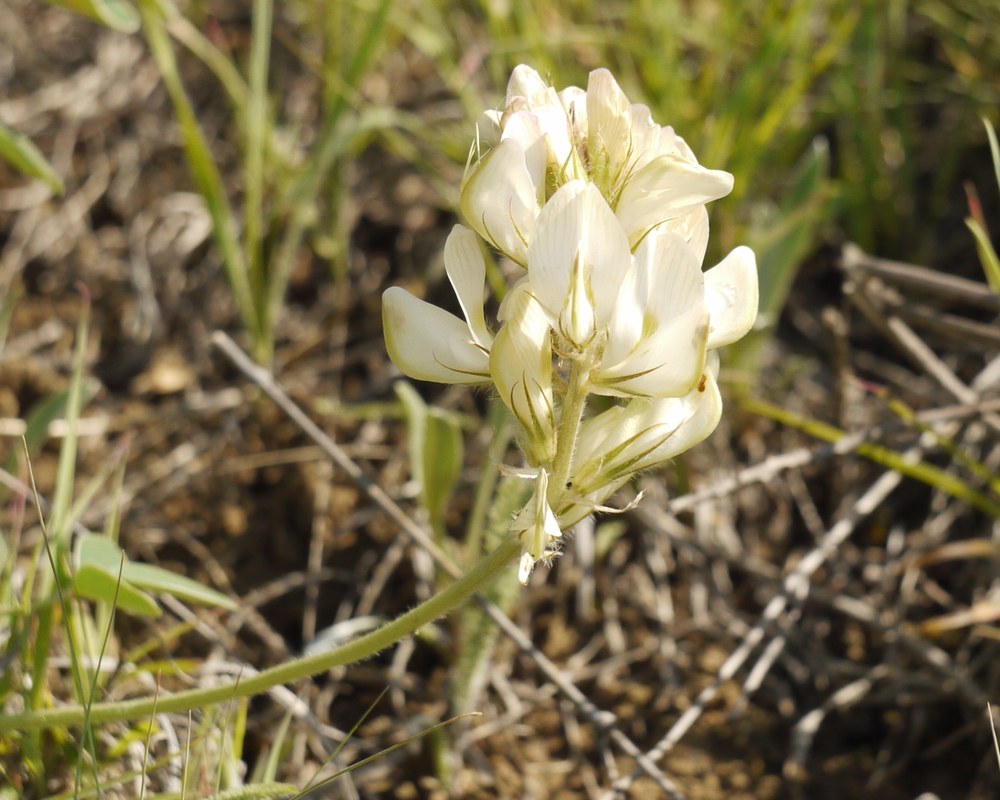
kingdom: Plantae
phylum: Tracheophyta
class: Magnoliopsida
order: Fabales
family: Fabaceae
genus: Hedysarum
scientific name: Hedysarum grandiflorum
